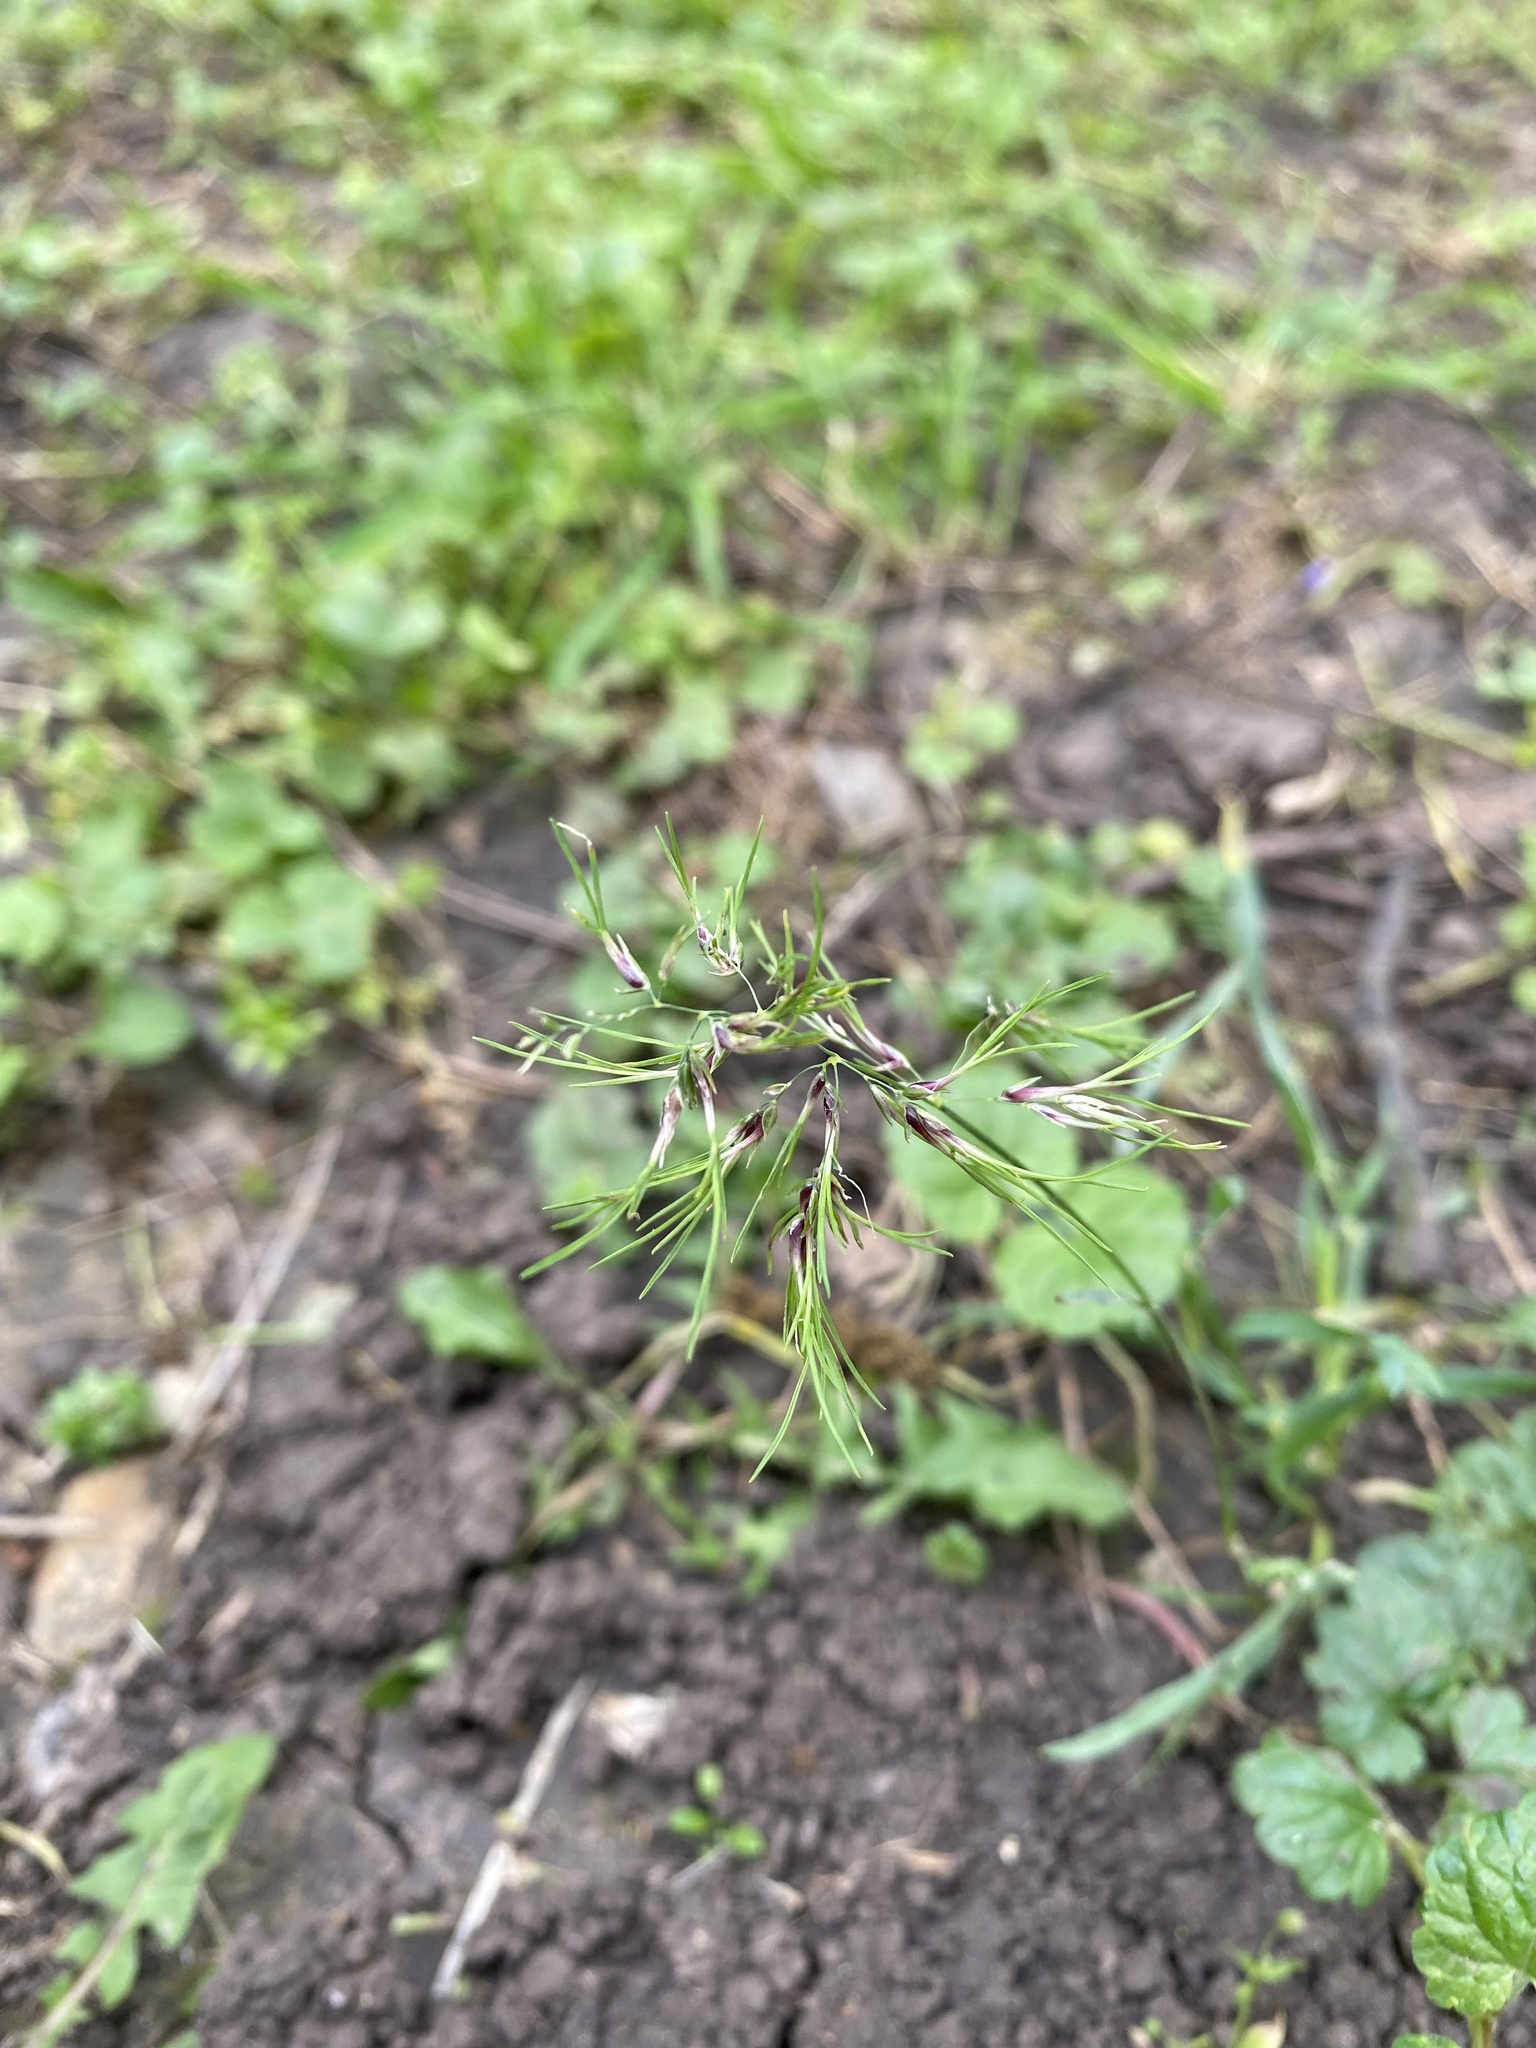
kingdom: Plantae
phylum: Tracheophyta
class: Liliopsida
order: Poales
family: Poaceae
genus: Poa
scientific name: Poa bulbosa
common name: Bulbous bluegrass
